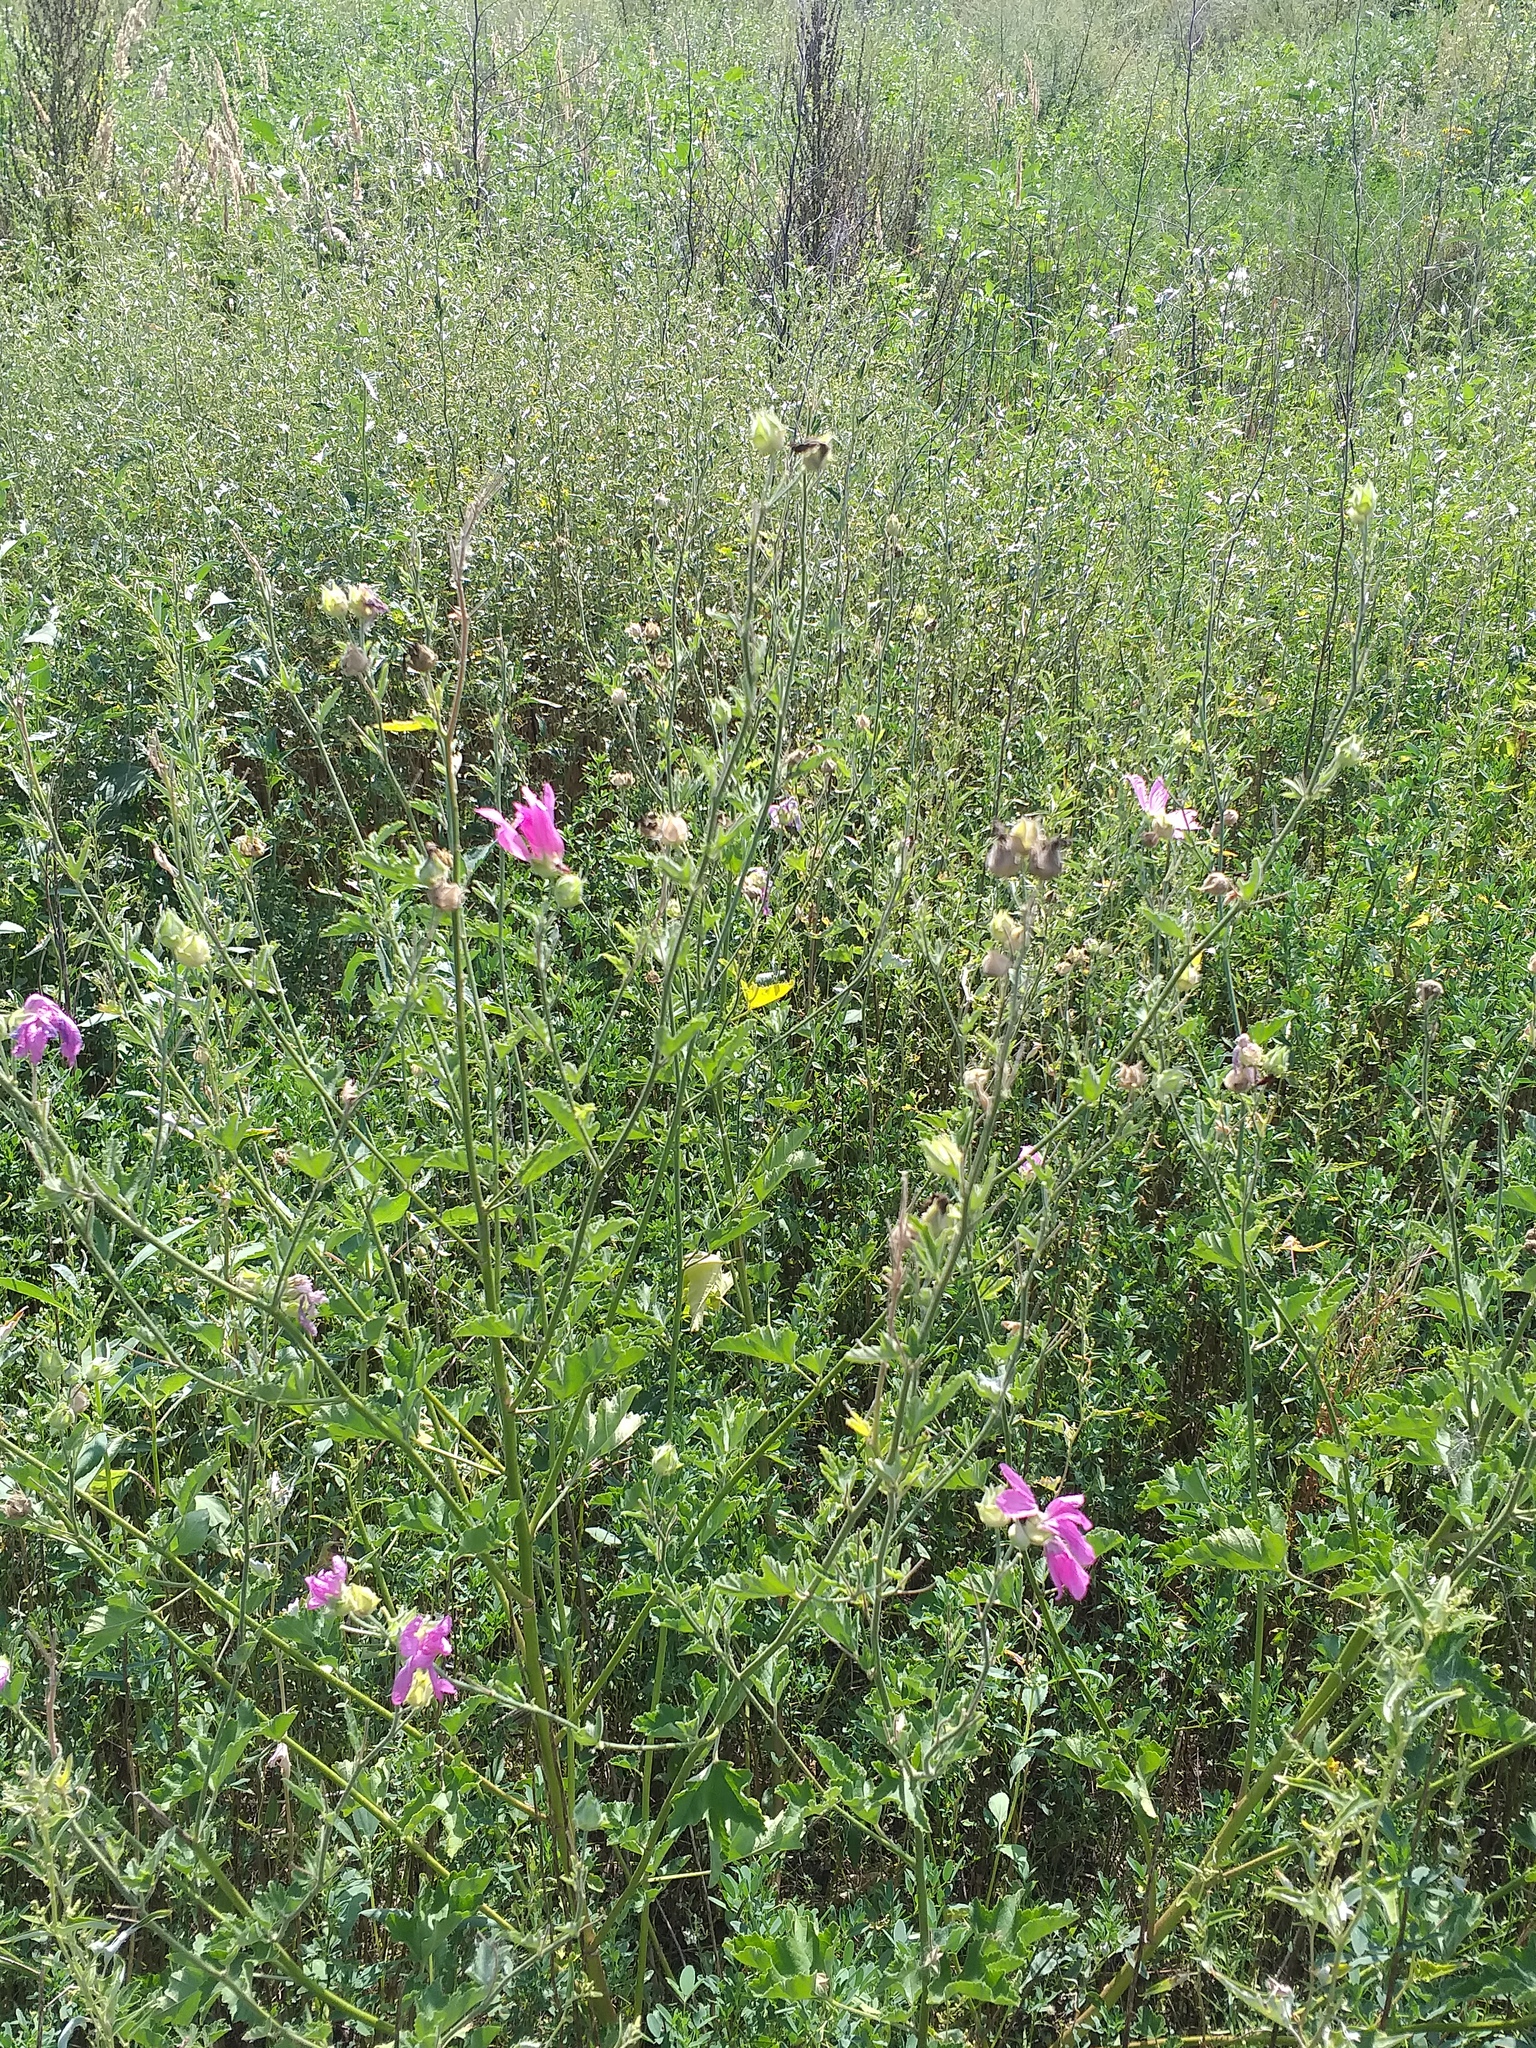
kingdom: Plantae
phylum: Tracheophyta
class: Magnoliopsida
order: Malvales
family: Malvaceae
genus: Malva
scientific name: Malva thuringiaca
